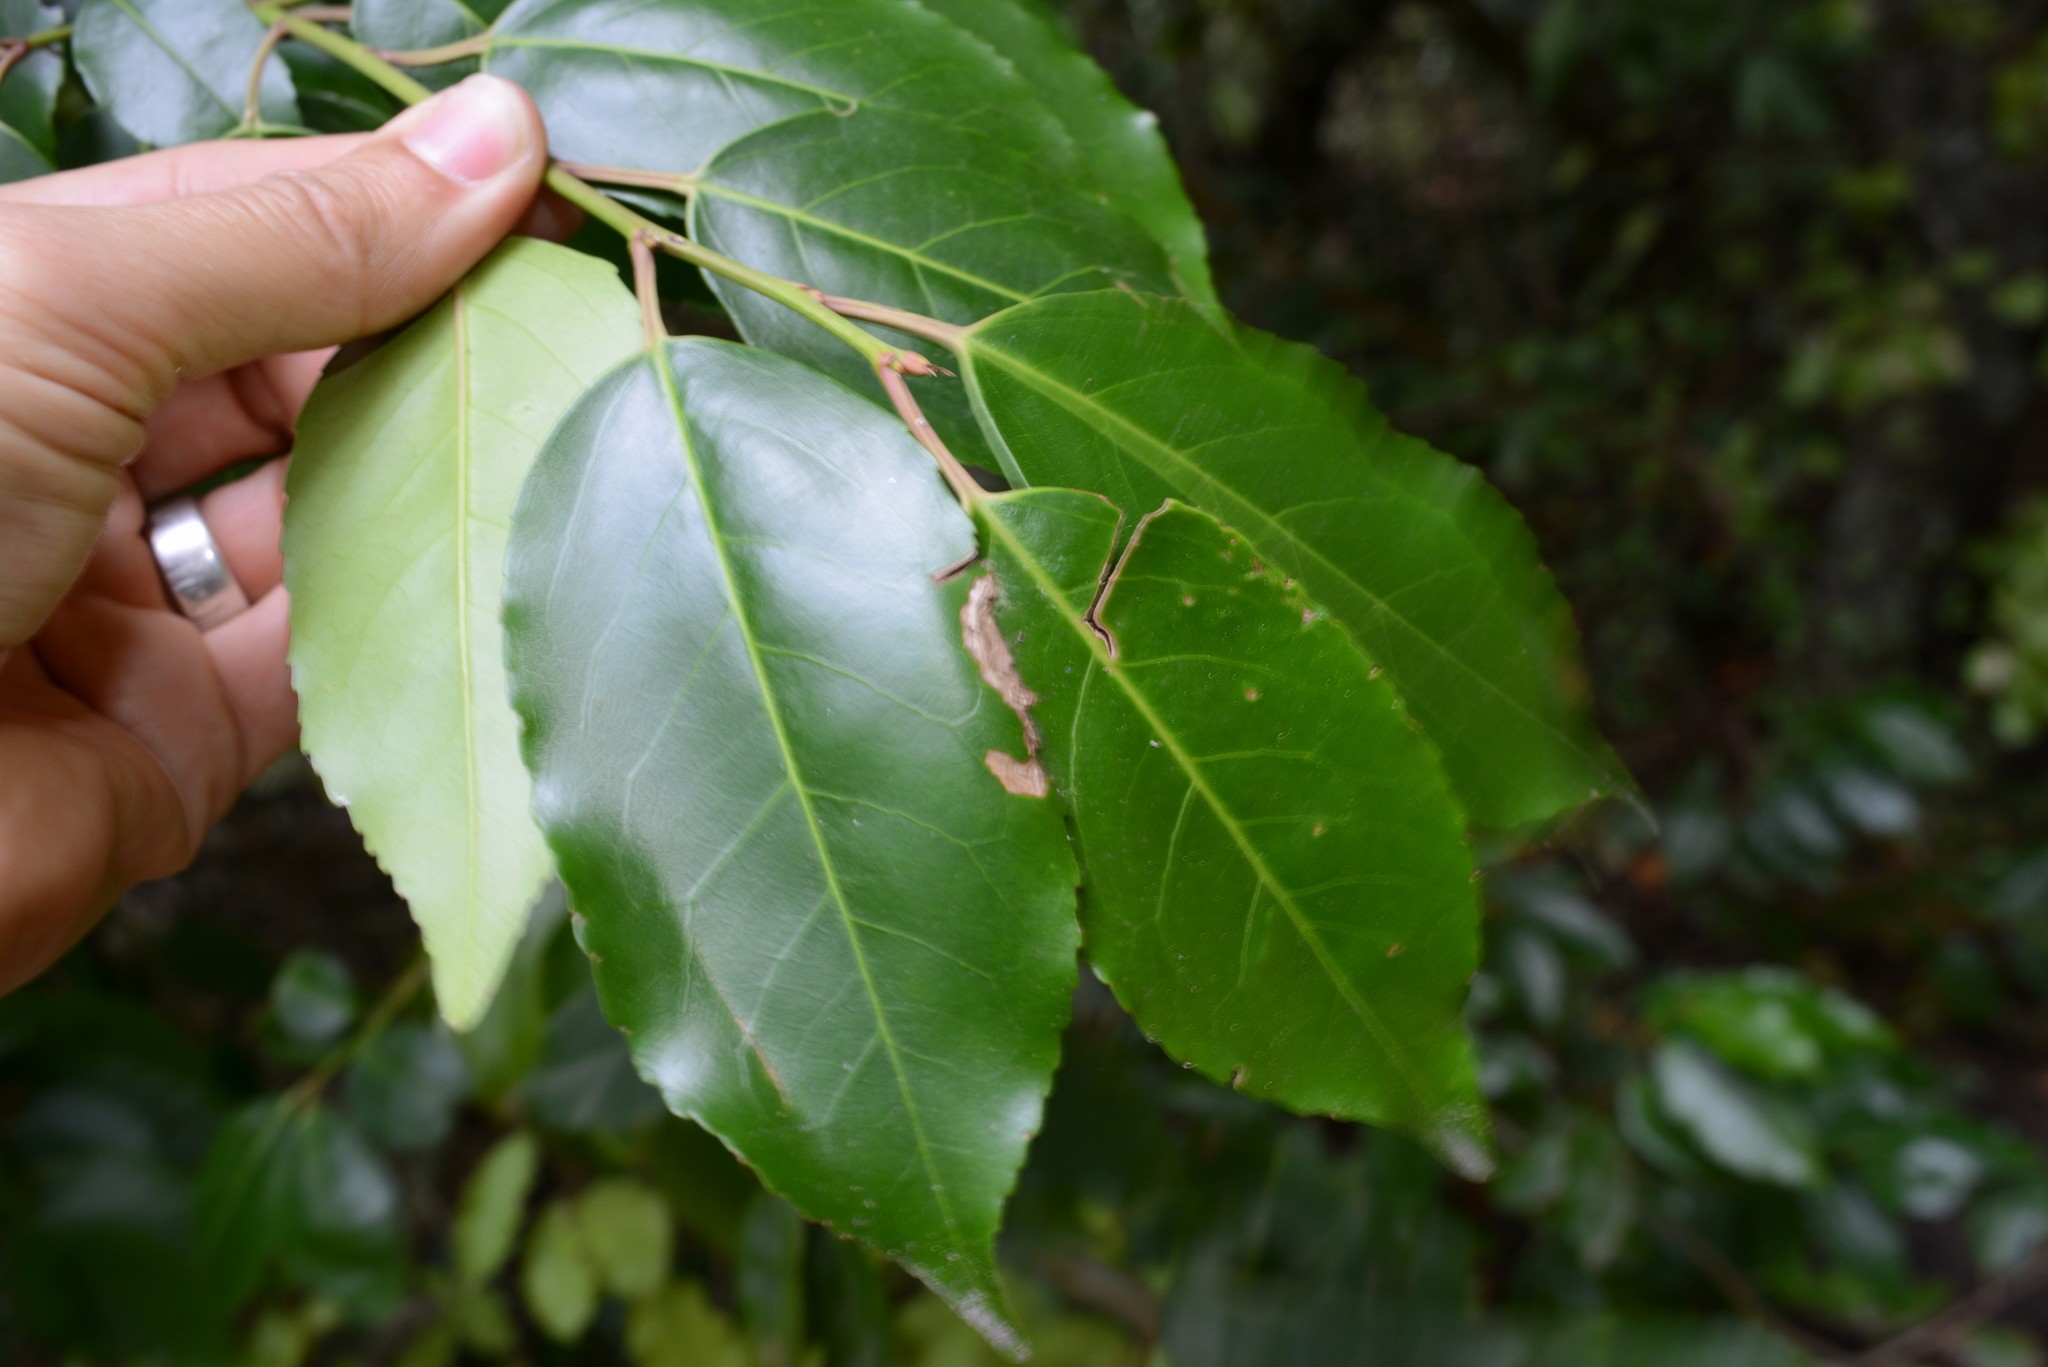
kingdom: Plantae
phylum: Tracheophyta
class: Magnoliopsida
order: Rosales
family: Rosaceae
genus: Prunus
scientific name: Prunus lusitanica
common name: Portugal laurel
